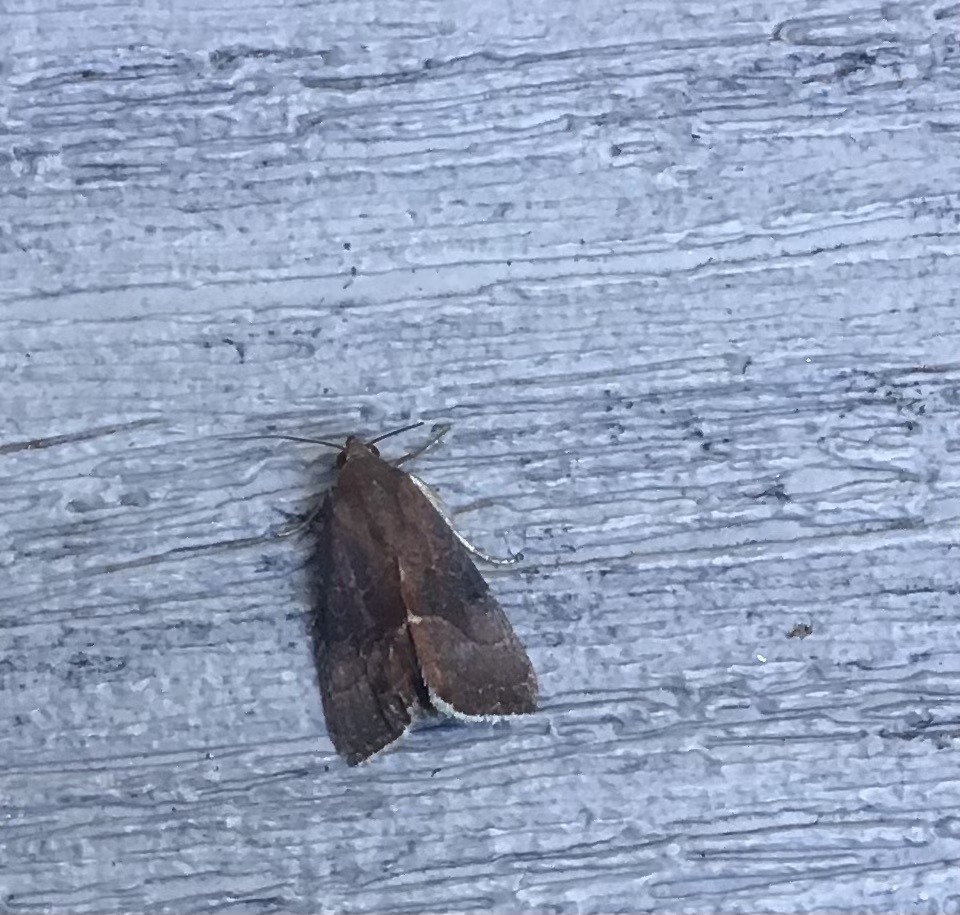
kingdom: Animalia
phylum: Arthropoda
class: Insecta
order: Lepidoptera
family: Noctuidae
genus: Galgula
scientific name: Galgula partita
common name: Wedgeling
